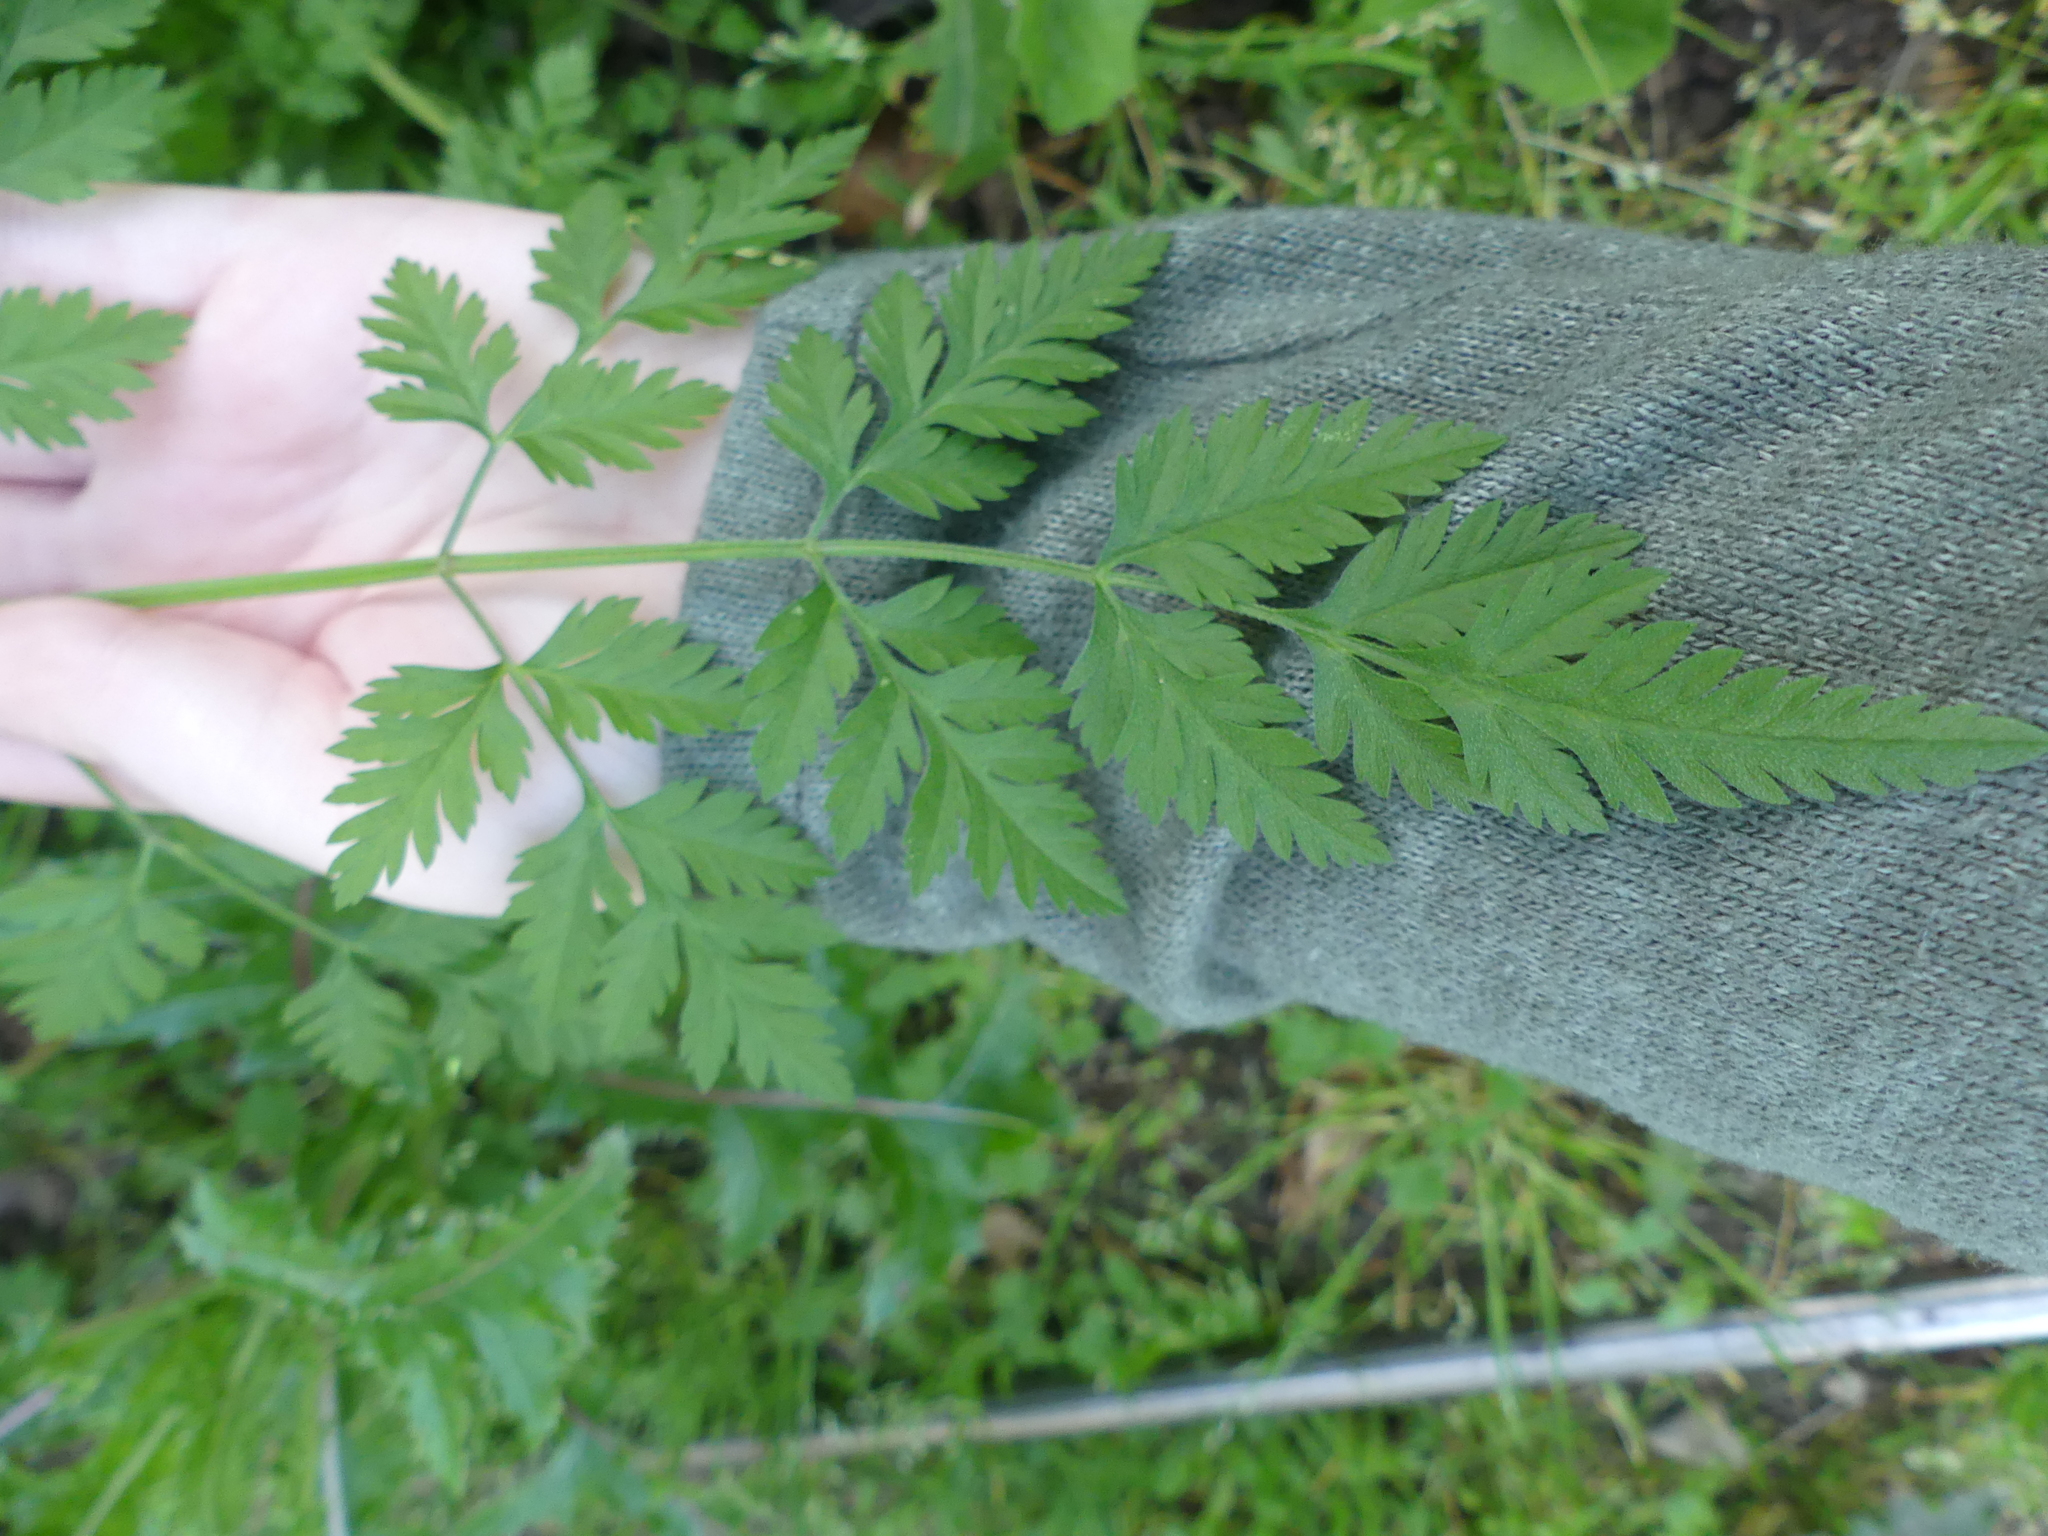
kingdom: Plantae
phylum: Tracheophyta
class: Magnoliopsida
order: Apiales
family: Apiaceae
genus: Torilis
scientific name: Torilis arvensis
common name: Spreading hedge-parsley
